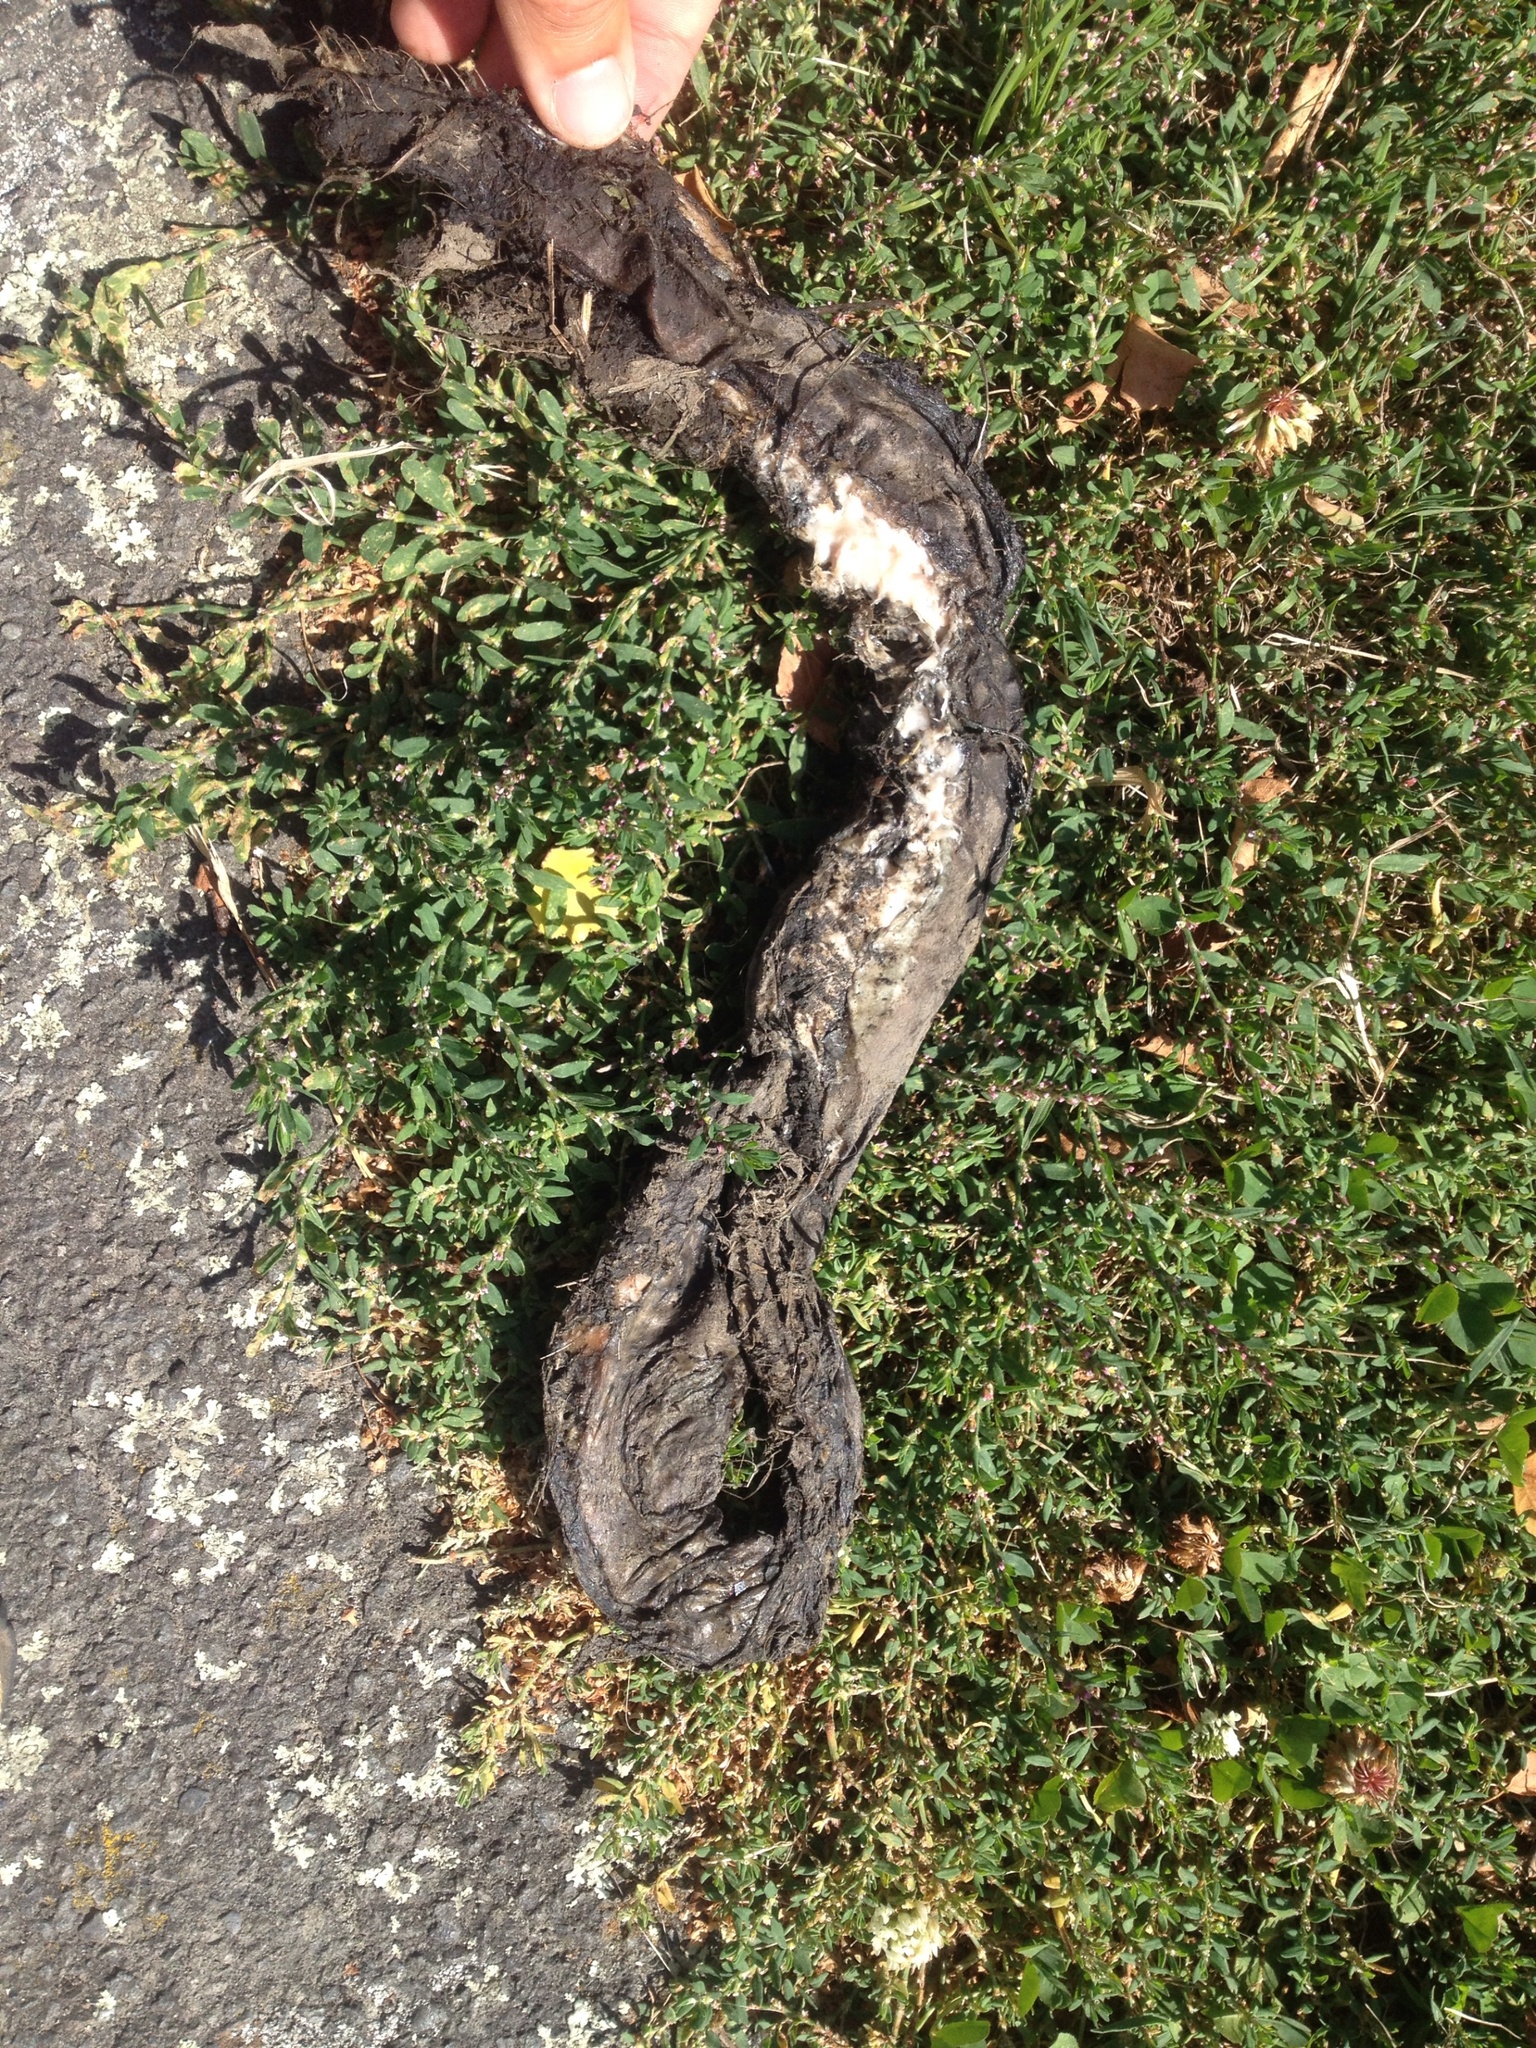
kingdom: Animalia
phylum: Chordata
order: Anguilliformes
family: Anguillidae
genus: Anguilla
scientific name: Anguilla
